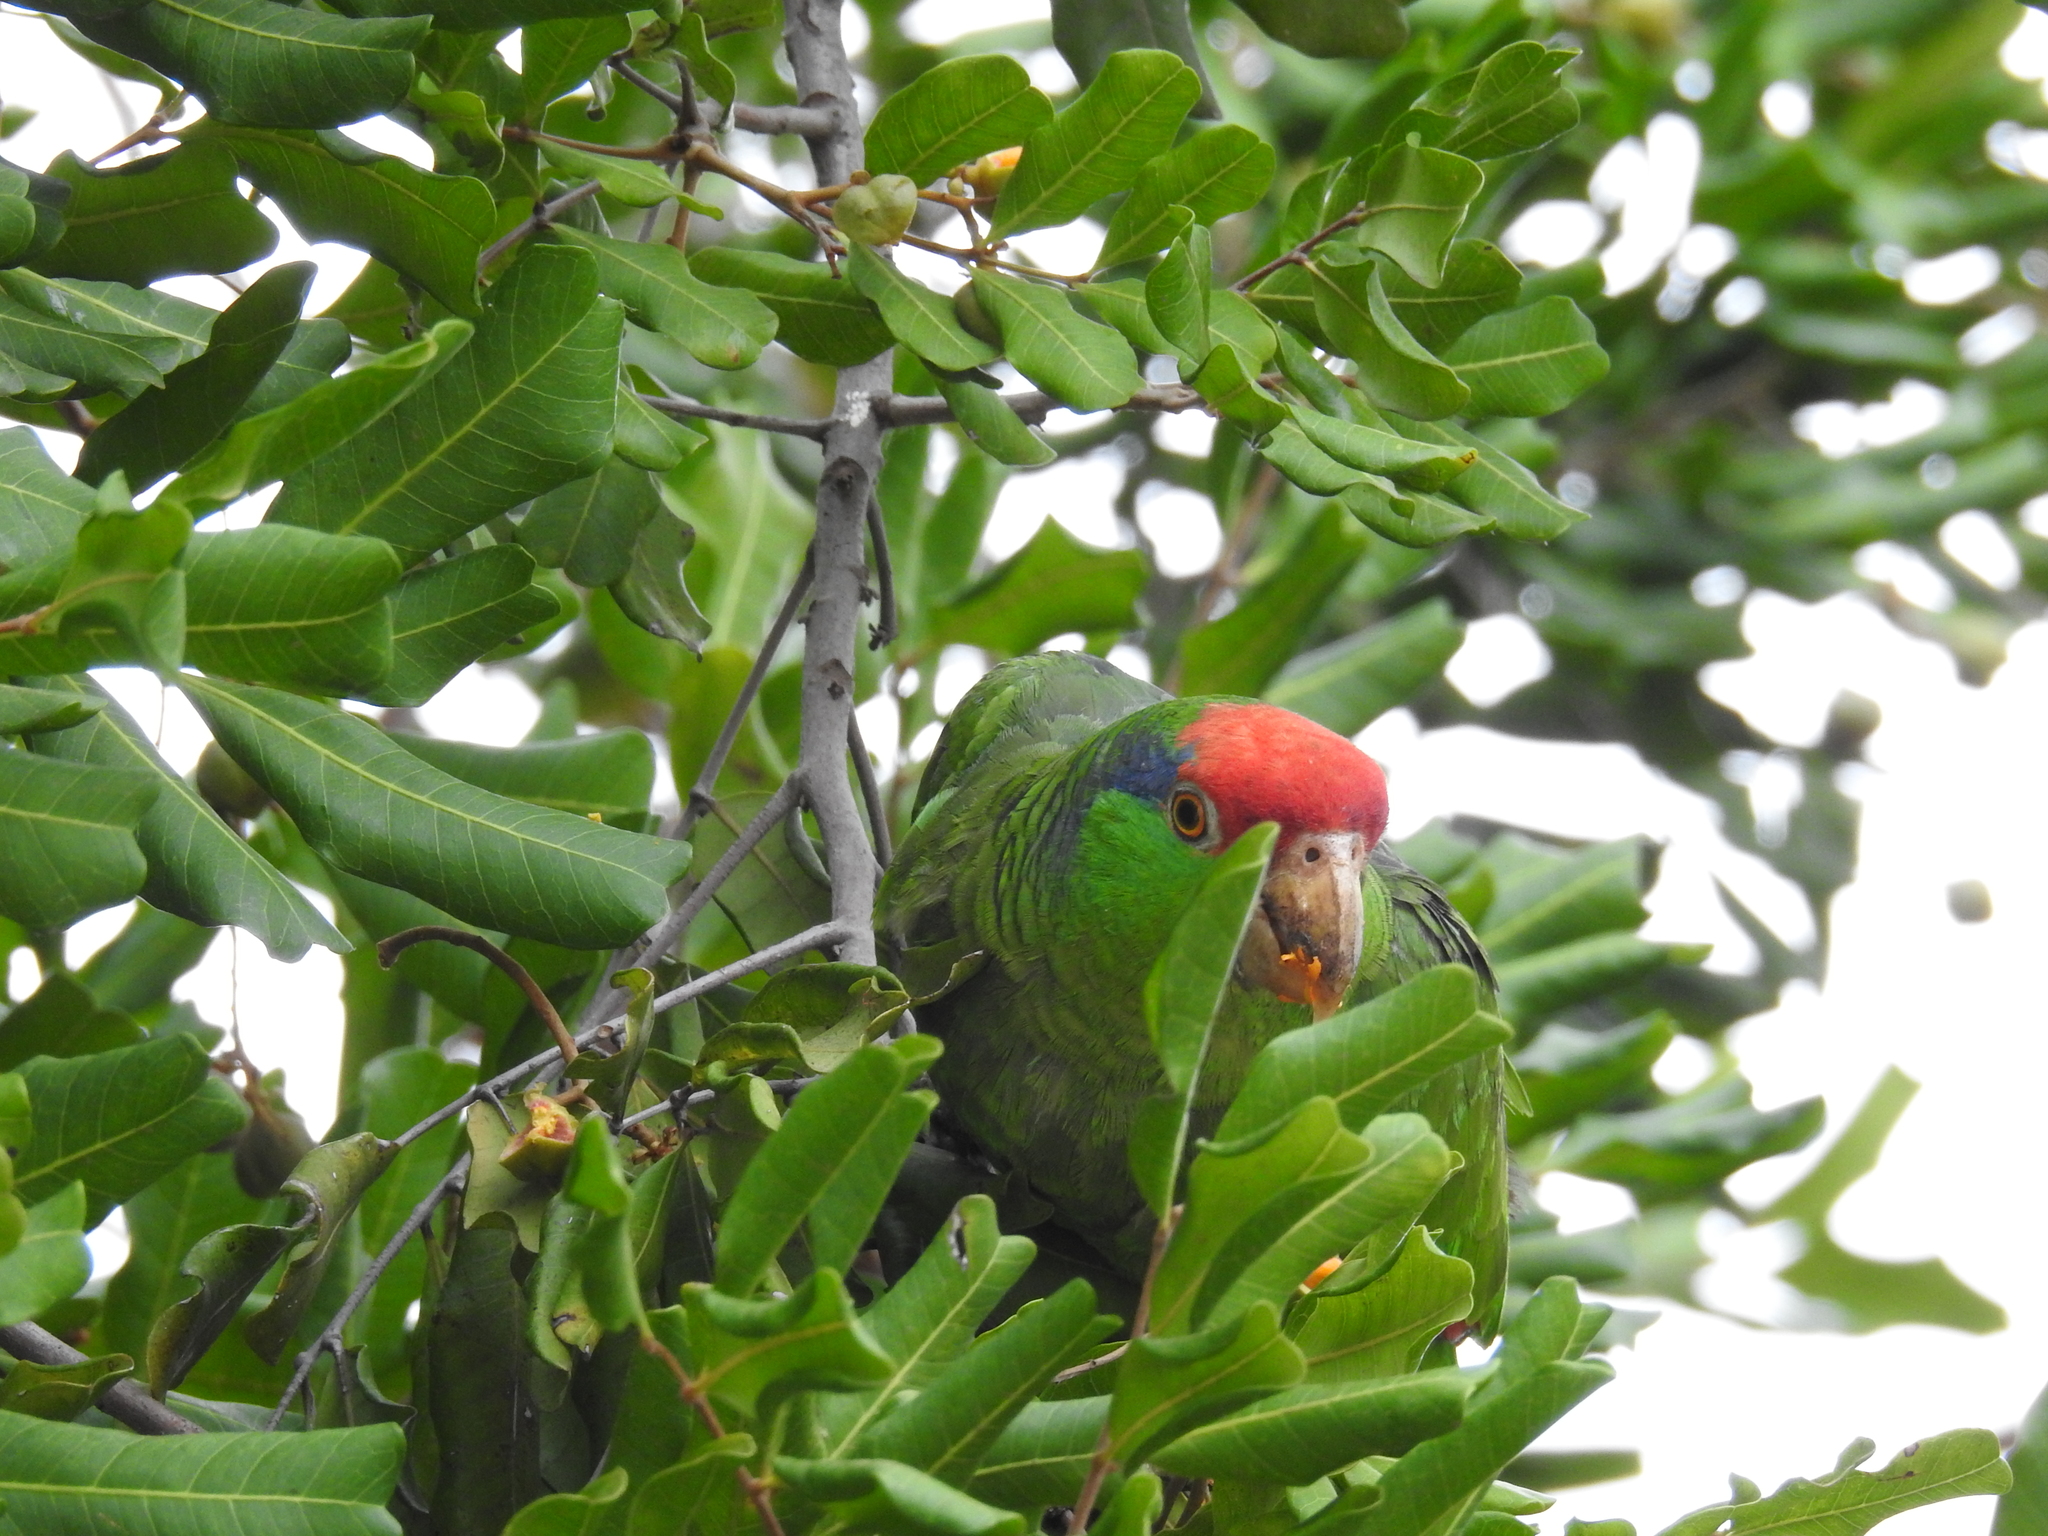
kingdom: Animalia
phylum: Chordata
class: Aves
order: Psittaciformes
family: Psittacidae
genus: Amazona
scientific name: Amazona viridigenalis
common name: Red-crowned amazon
